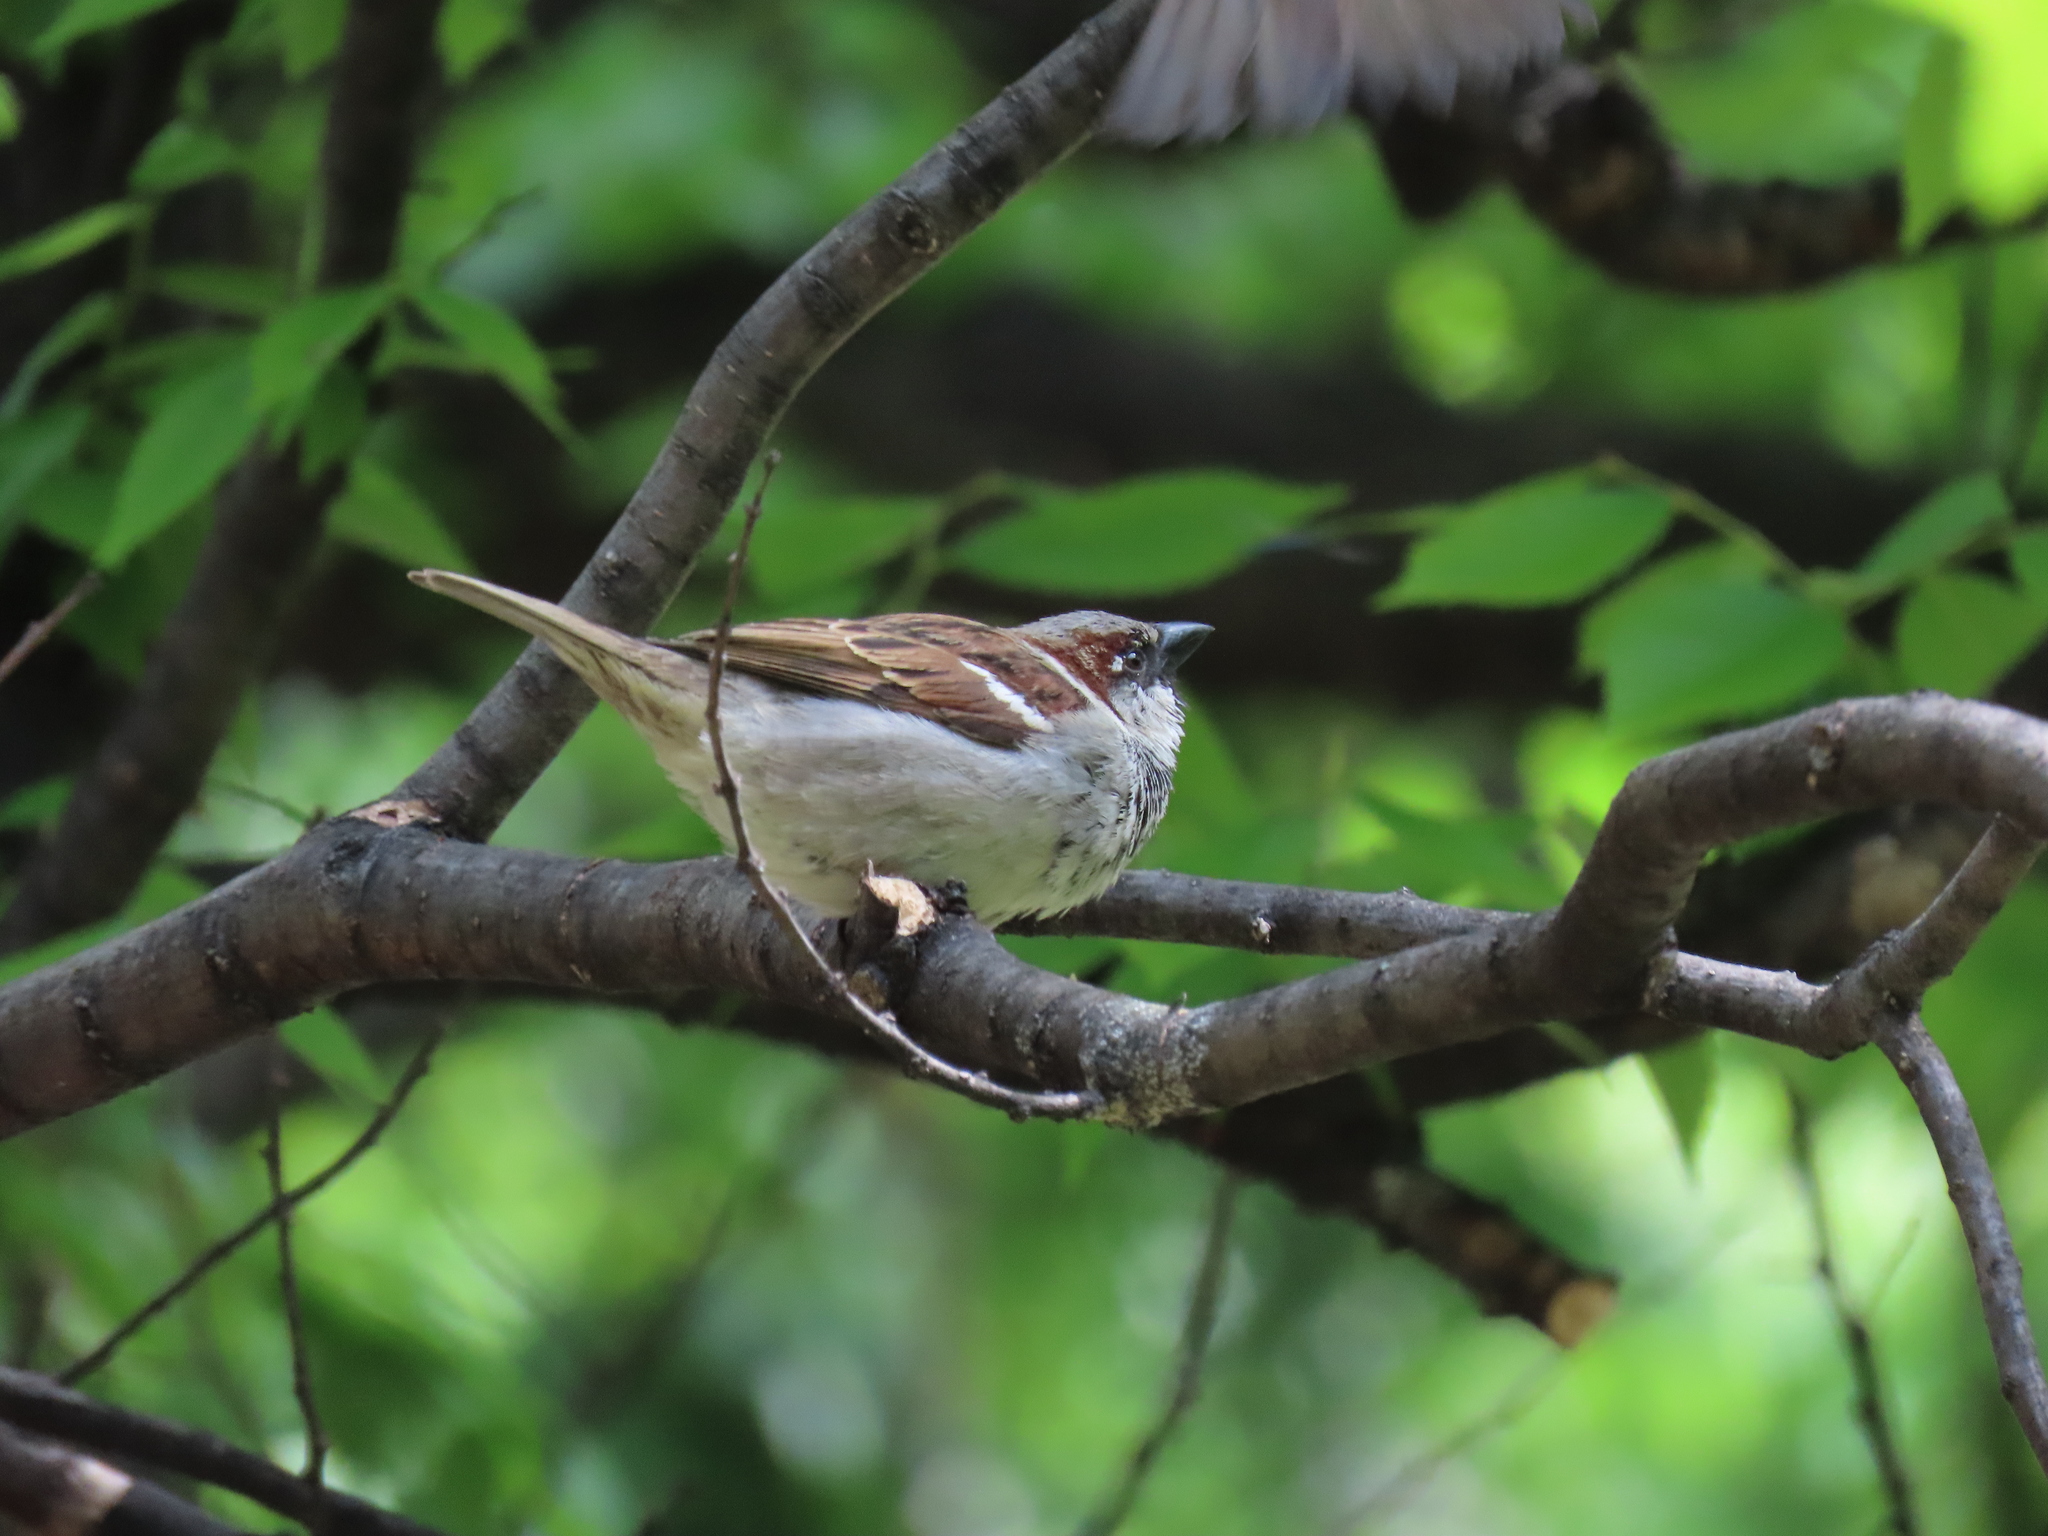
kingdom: Animalia
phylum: Chordata
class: Aves
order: Passeriformes
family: Passeridae
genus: Passer
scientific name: Passer domesticus
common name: House sparrow
